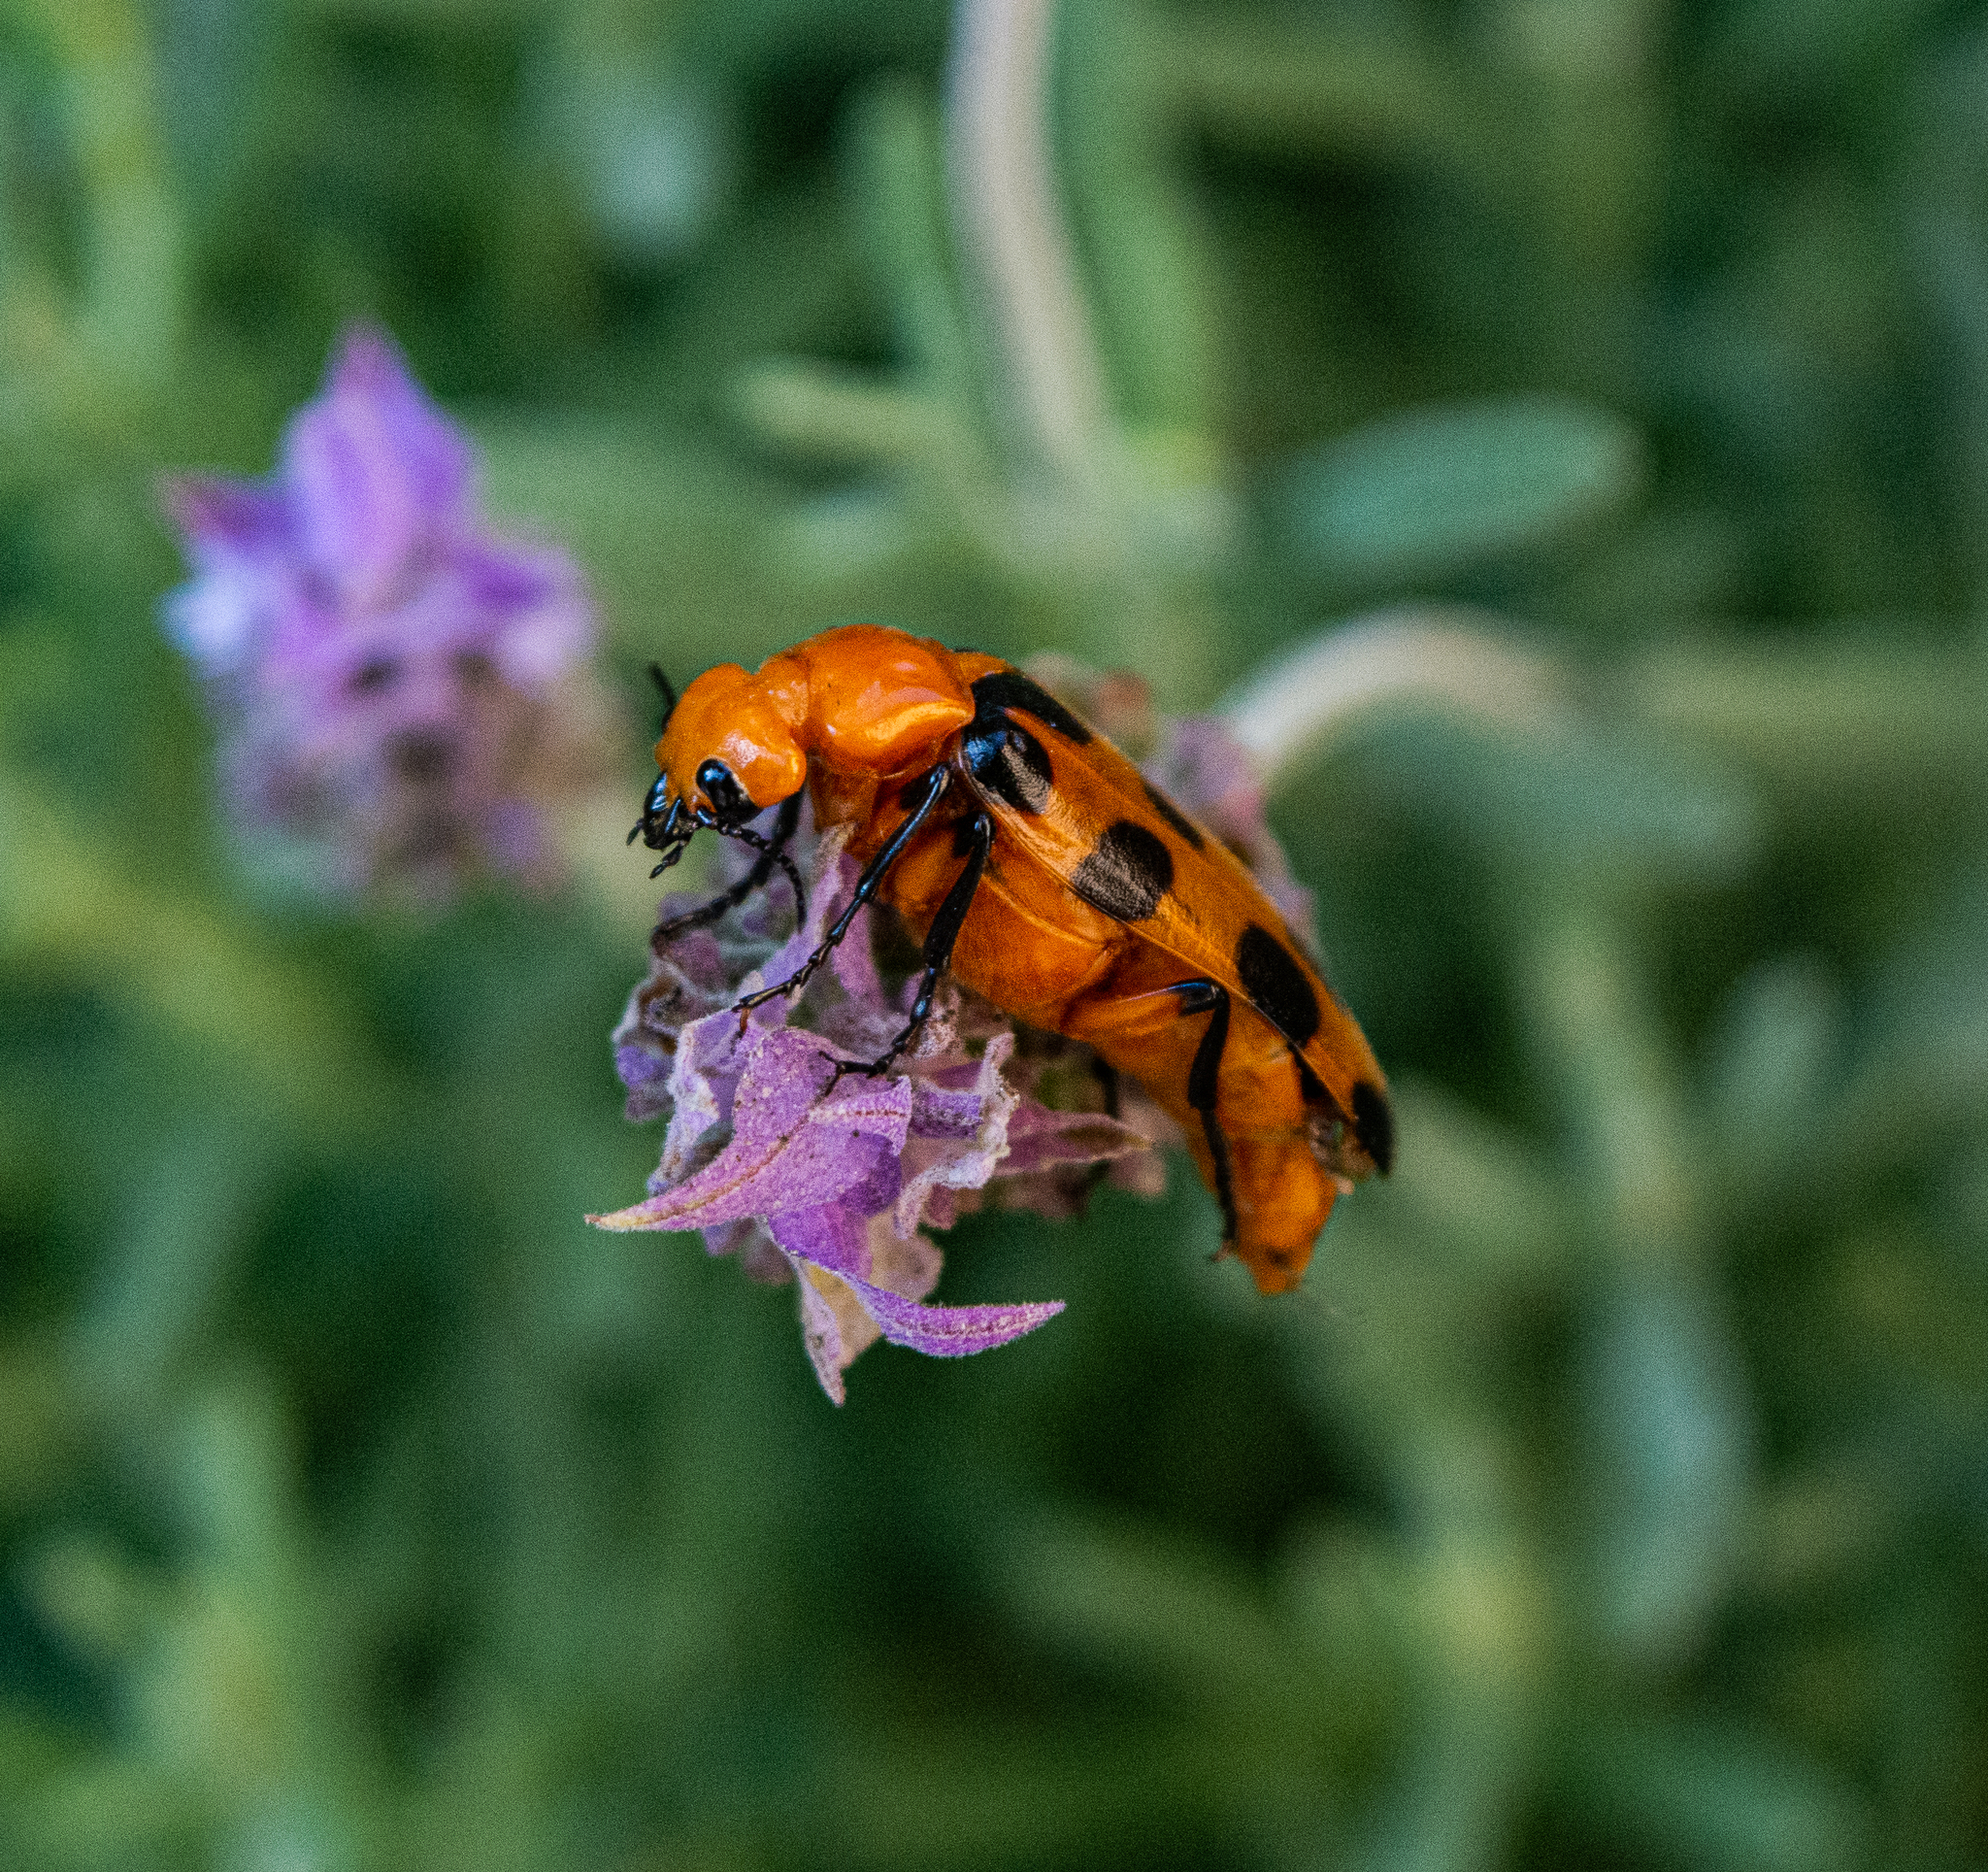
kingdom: Animalia
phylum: Arthropoda
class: Insecta
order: Coleoptera
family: Meloidae
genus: Cissites
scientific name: Cissites maculata
